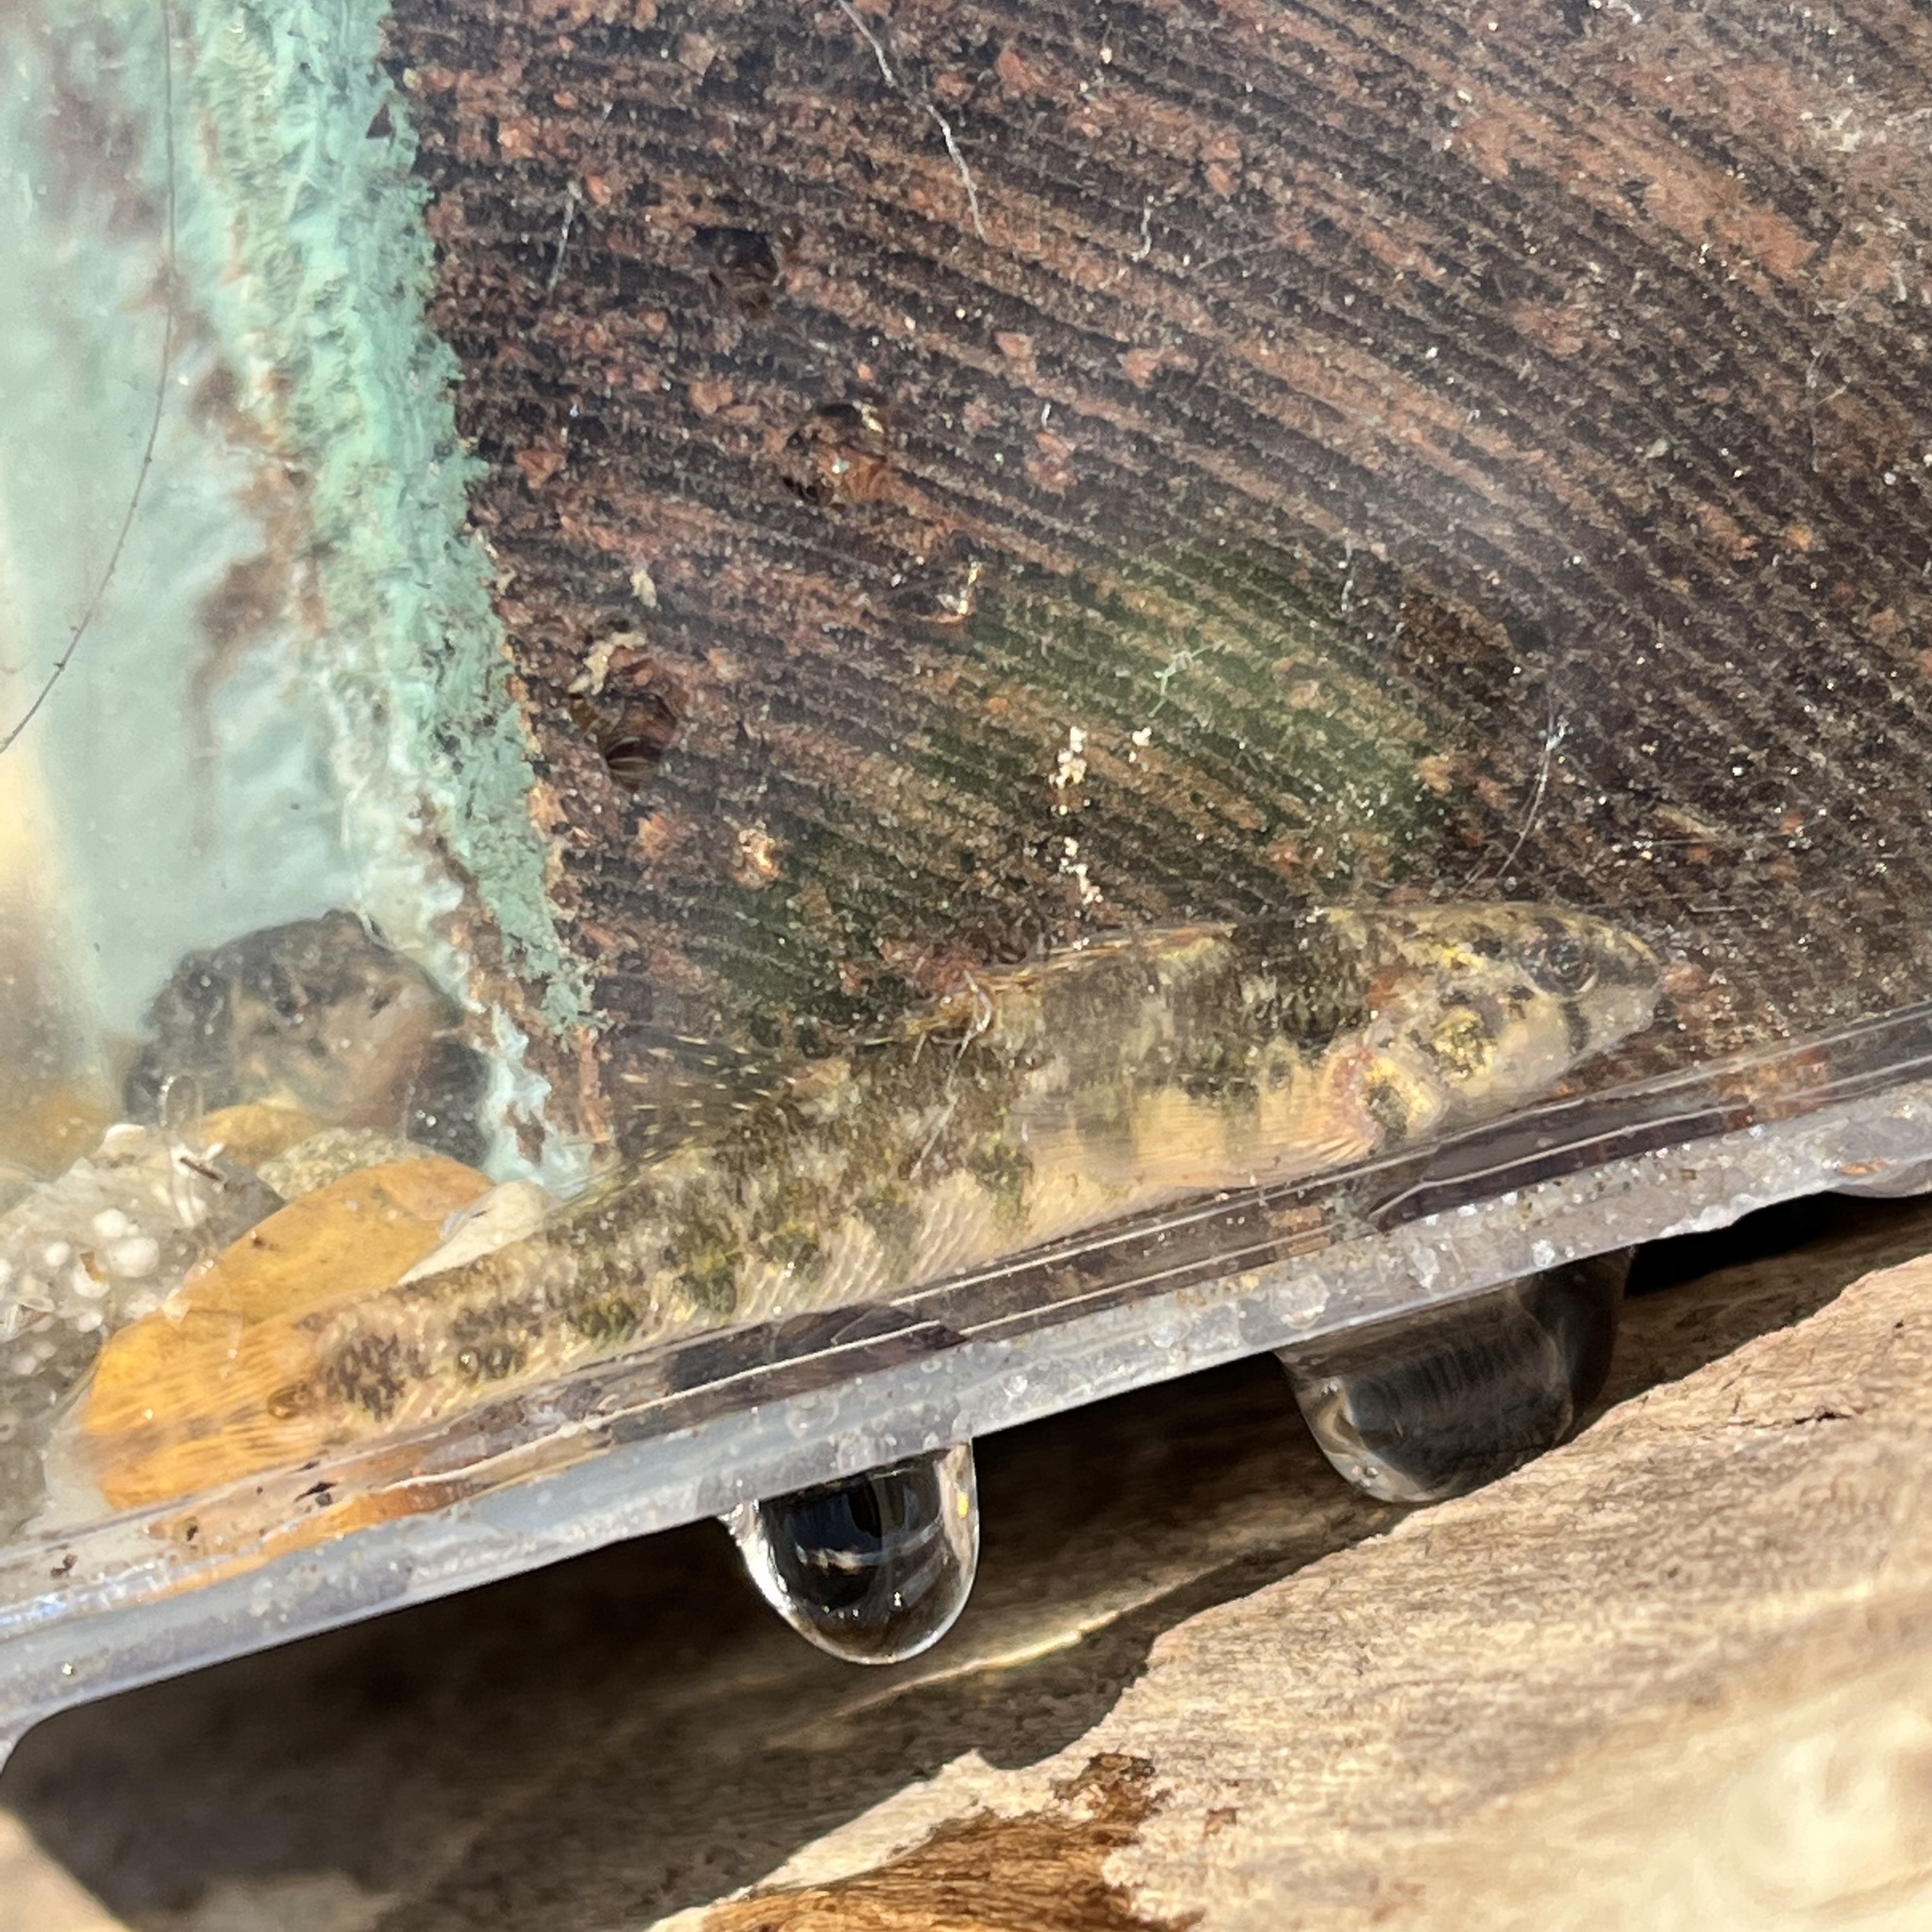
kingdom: Animalia
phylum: Chordata
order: Perciformes
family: Percidae
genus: Etheostoma
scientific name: Etheostoma zonale
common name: Banded darter
